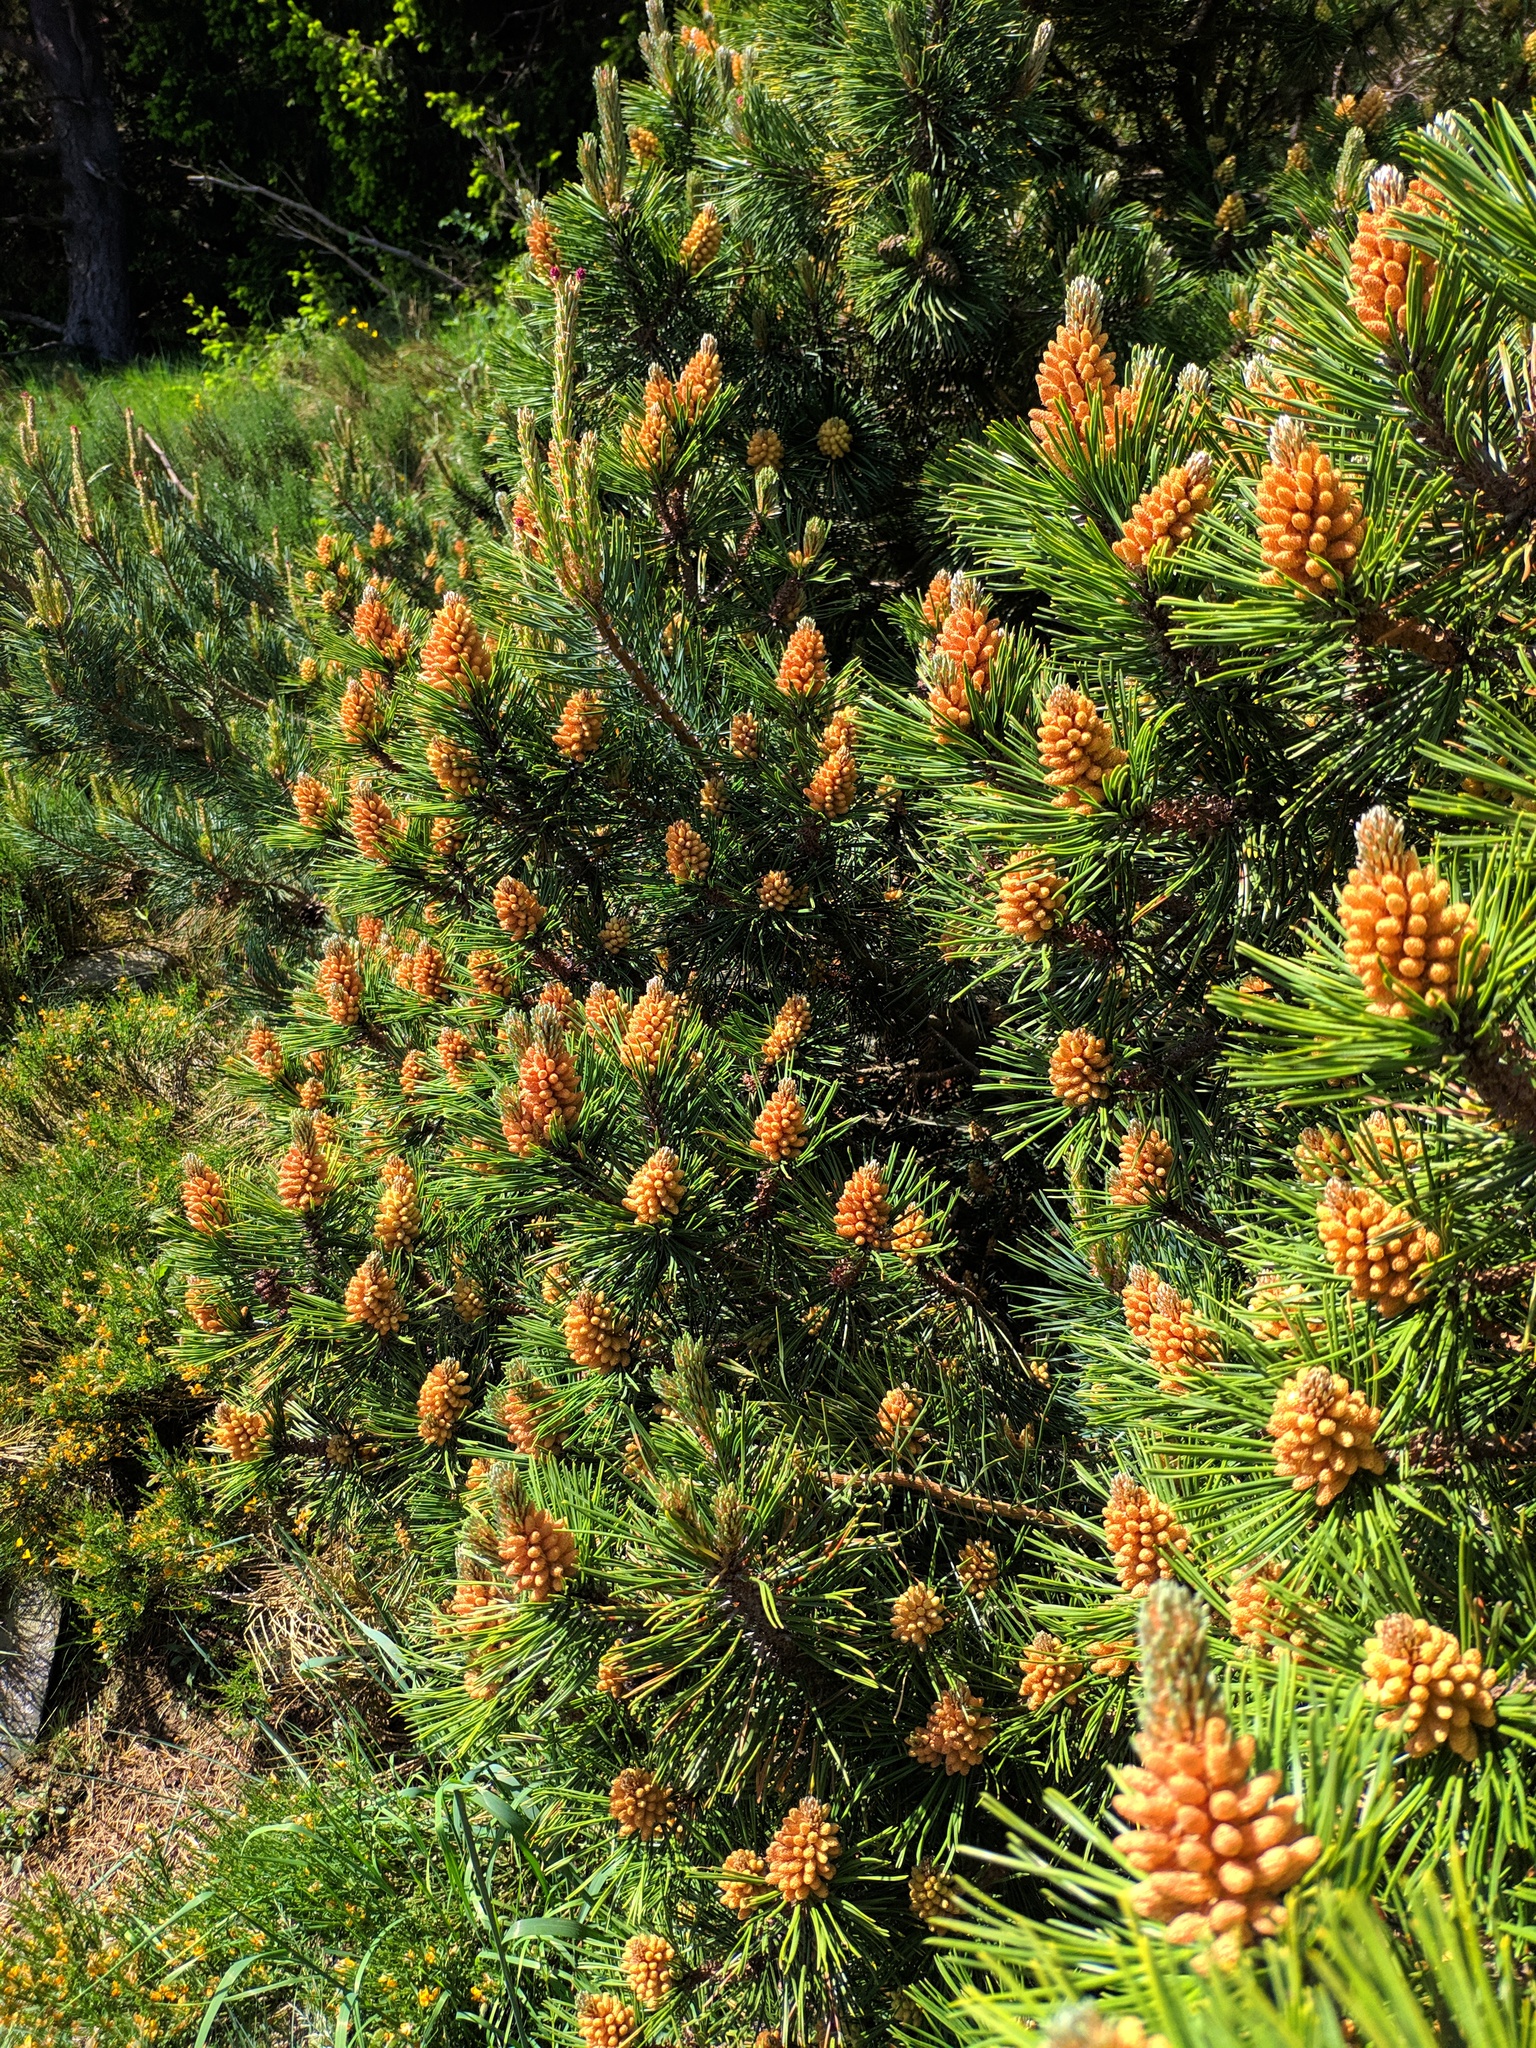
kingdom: Plantae
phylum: Tracheophyta
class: Pinopsida
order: Pinales
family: Pinaceae
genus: Pinus
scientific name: Pinus uncinata
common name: Mountain pine
